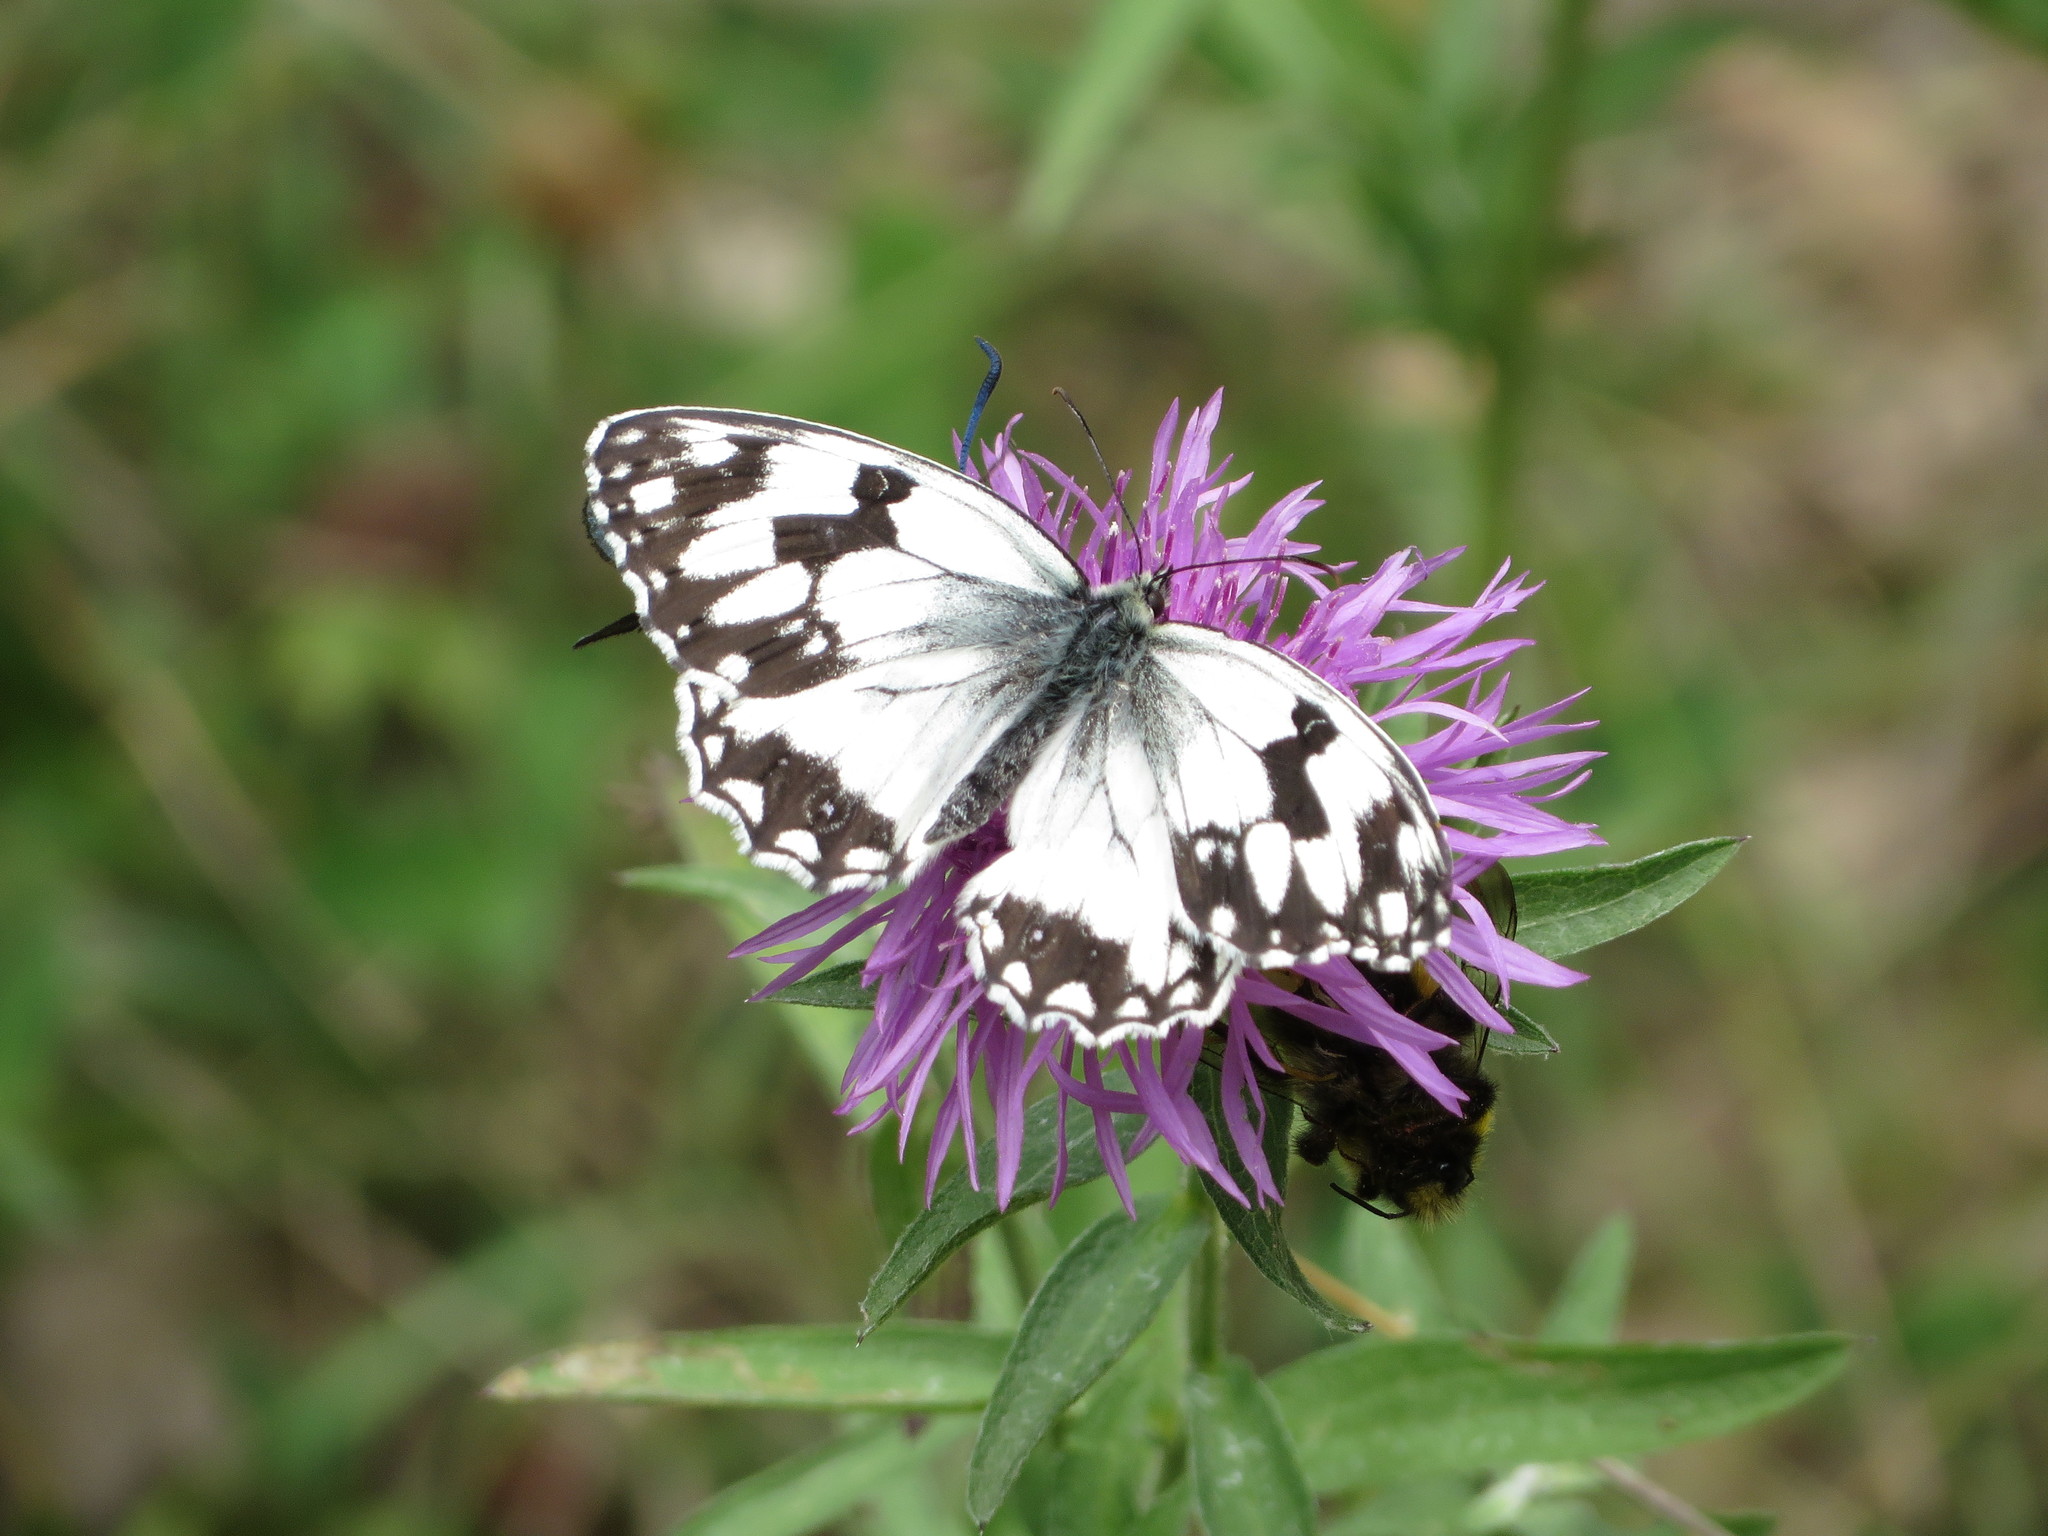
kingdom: Animalia
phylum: Arthropoda
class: Insecta
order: Lepidoptera
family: Nymphalidae
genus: Melanargia
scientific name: Melanargia lachesis
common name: Iberian marbled white
